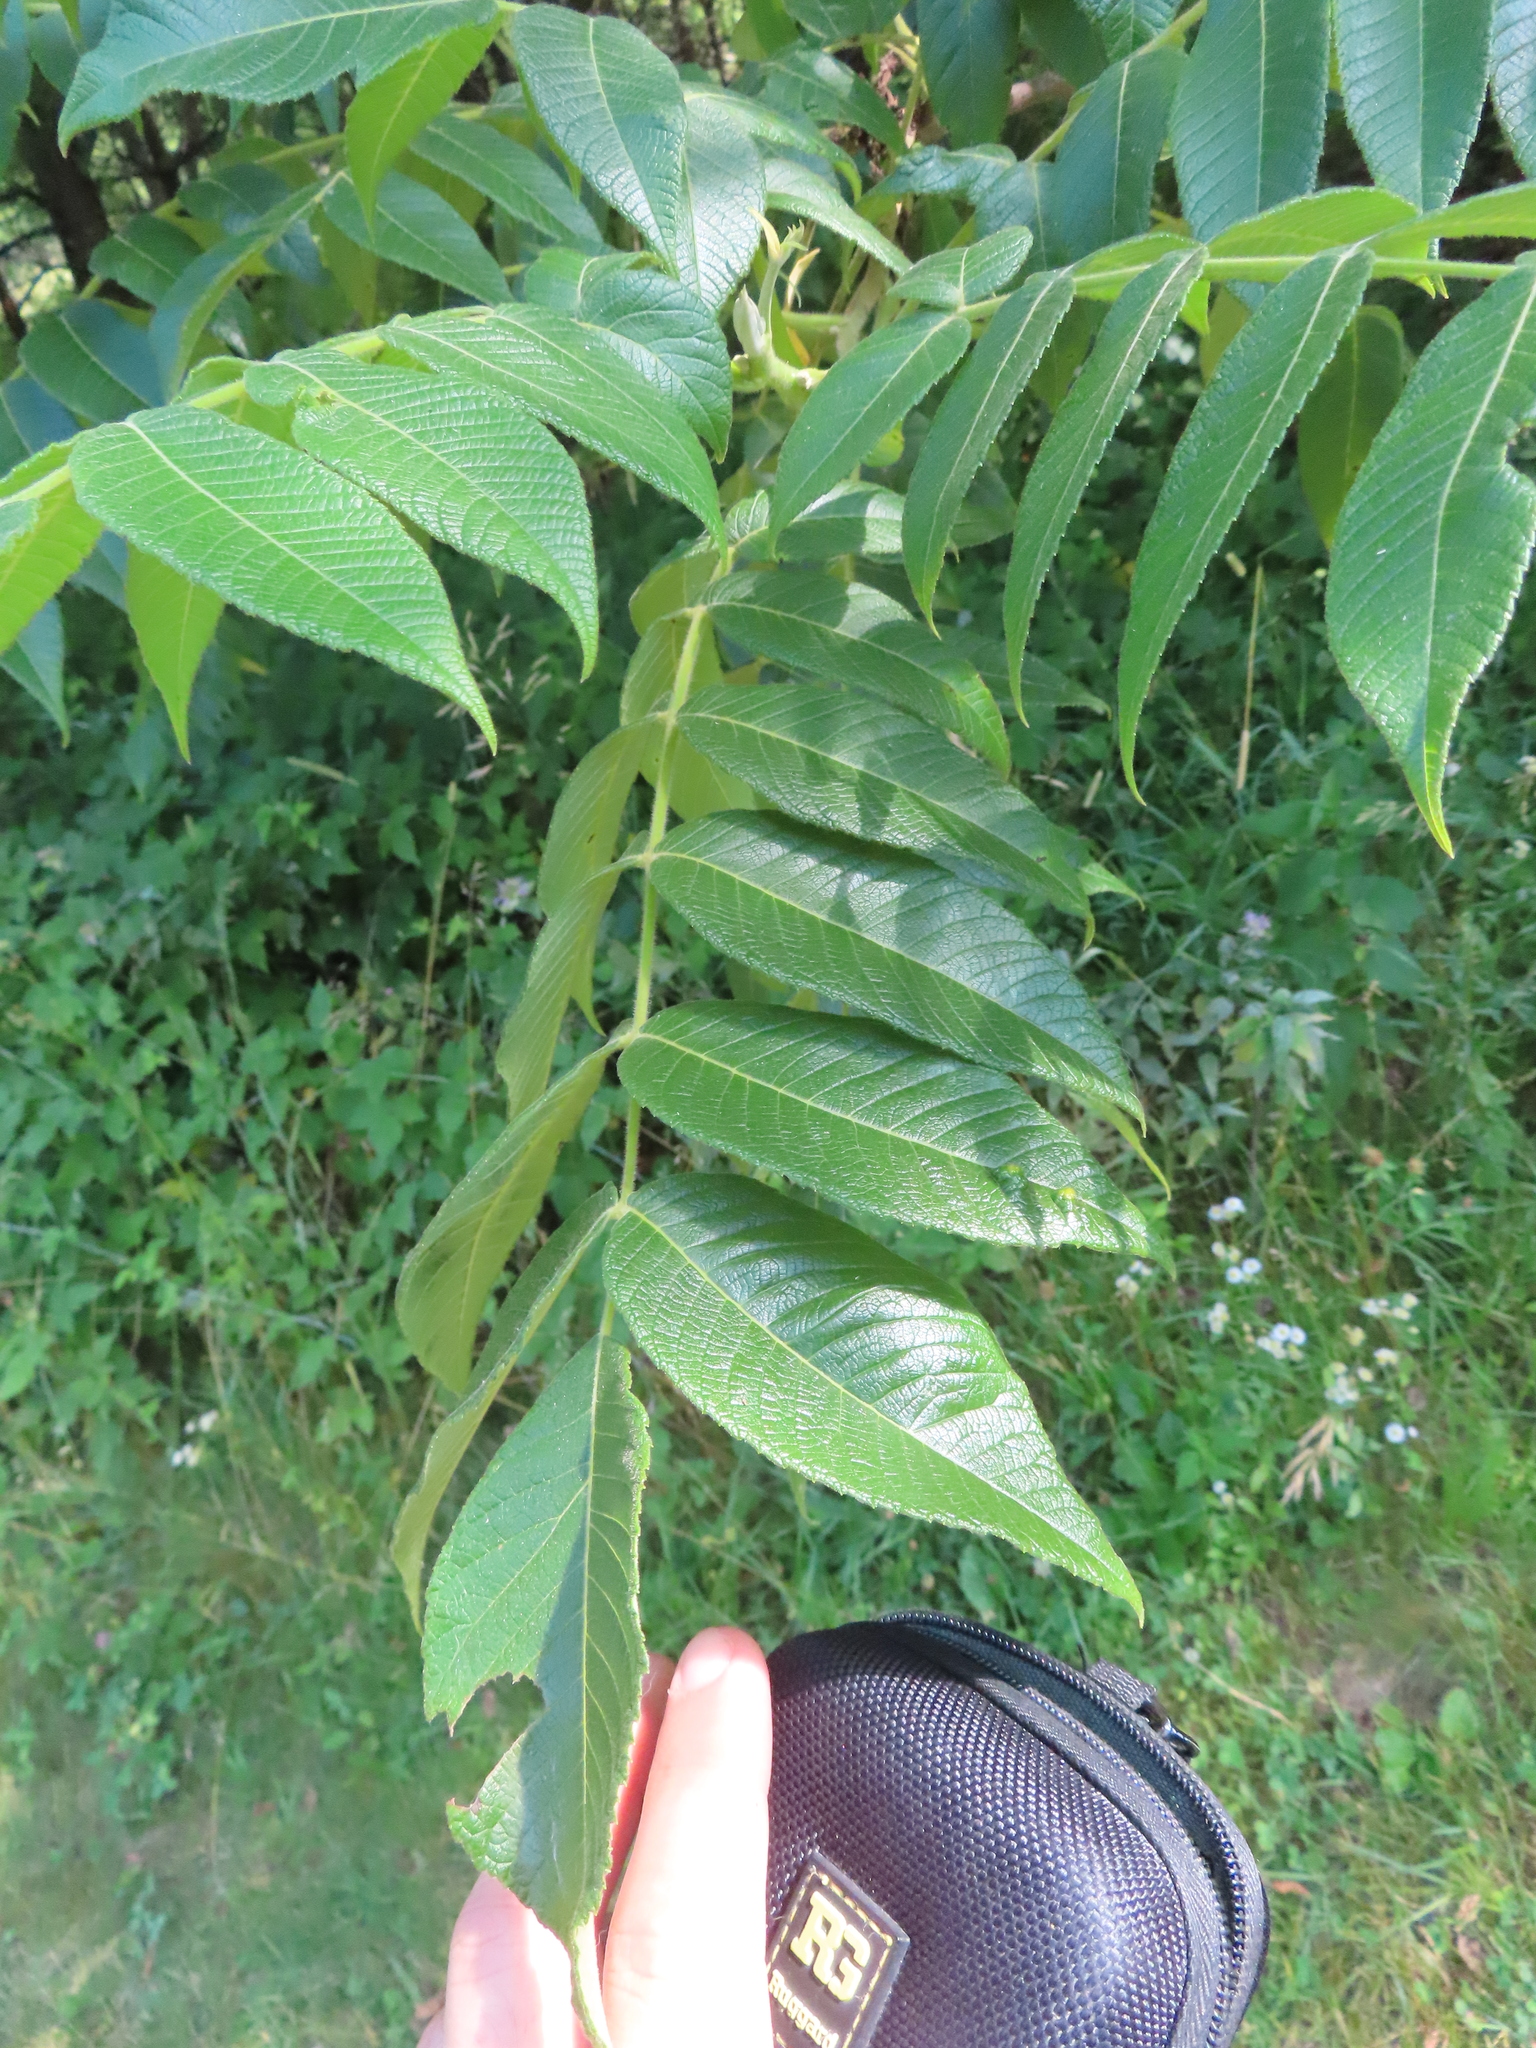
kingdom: Plantae
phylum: Tracheophyta
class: Magnoliopsida
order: Fagales
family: Juglandaceae
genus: Juglans
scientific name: Juglans cinerea
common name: Butternut
